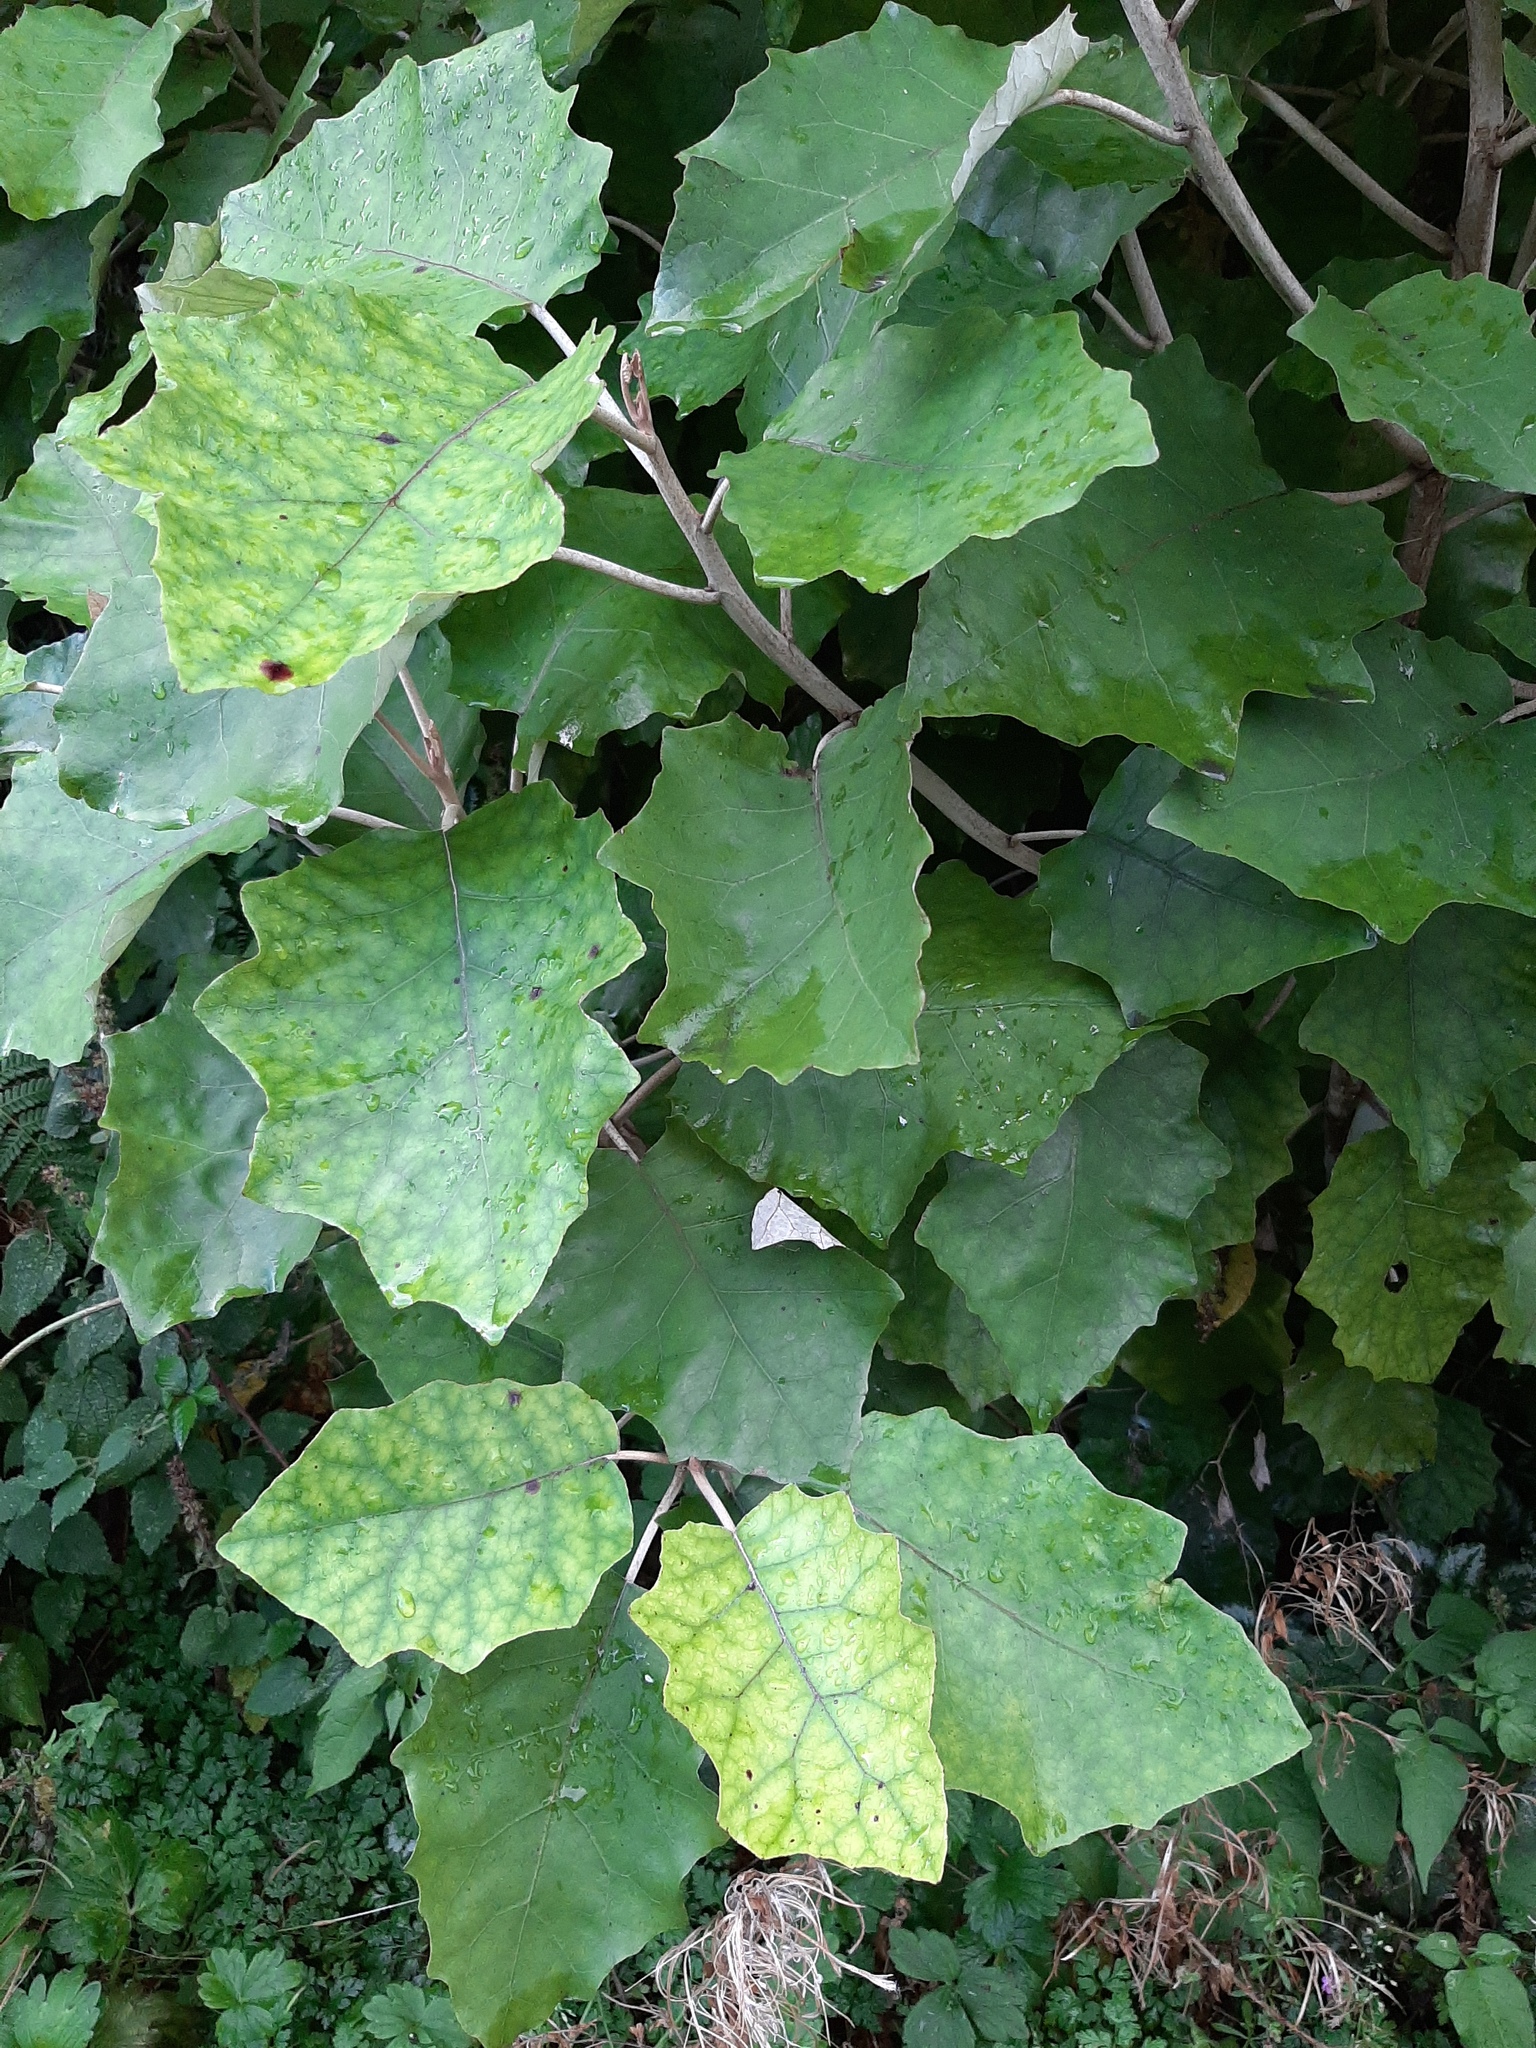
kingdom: Plantae
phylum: Tracheophyta
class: Magnoliopsida
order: Asterales
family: Asteraceae
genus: Brachyglottis
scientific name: Brachyglottis repanda
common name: Hedge ragwort
